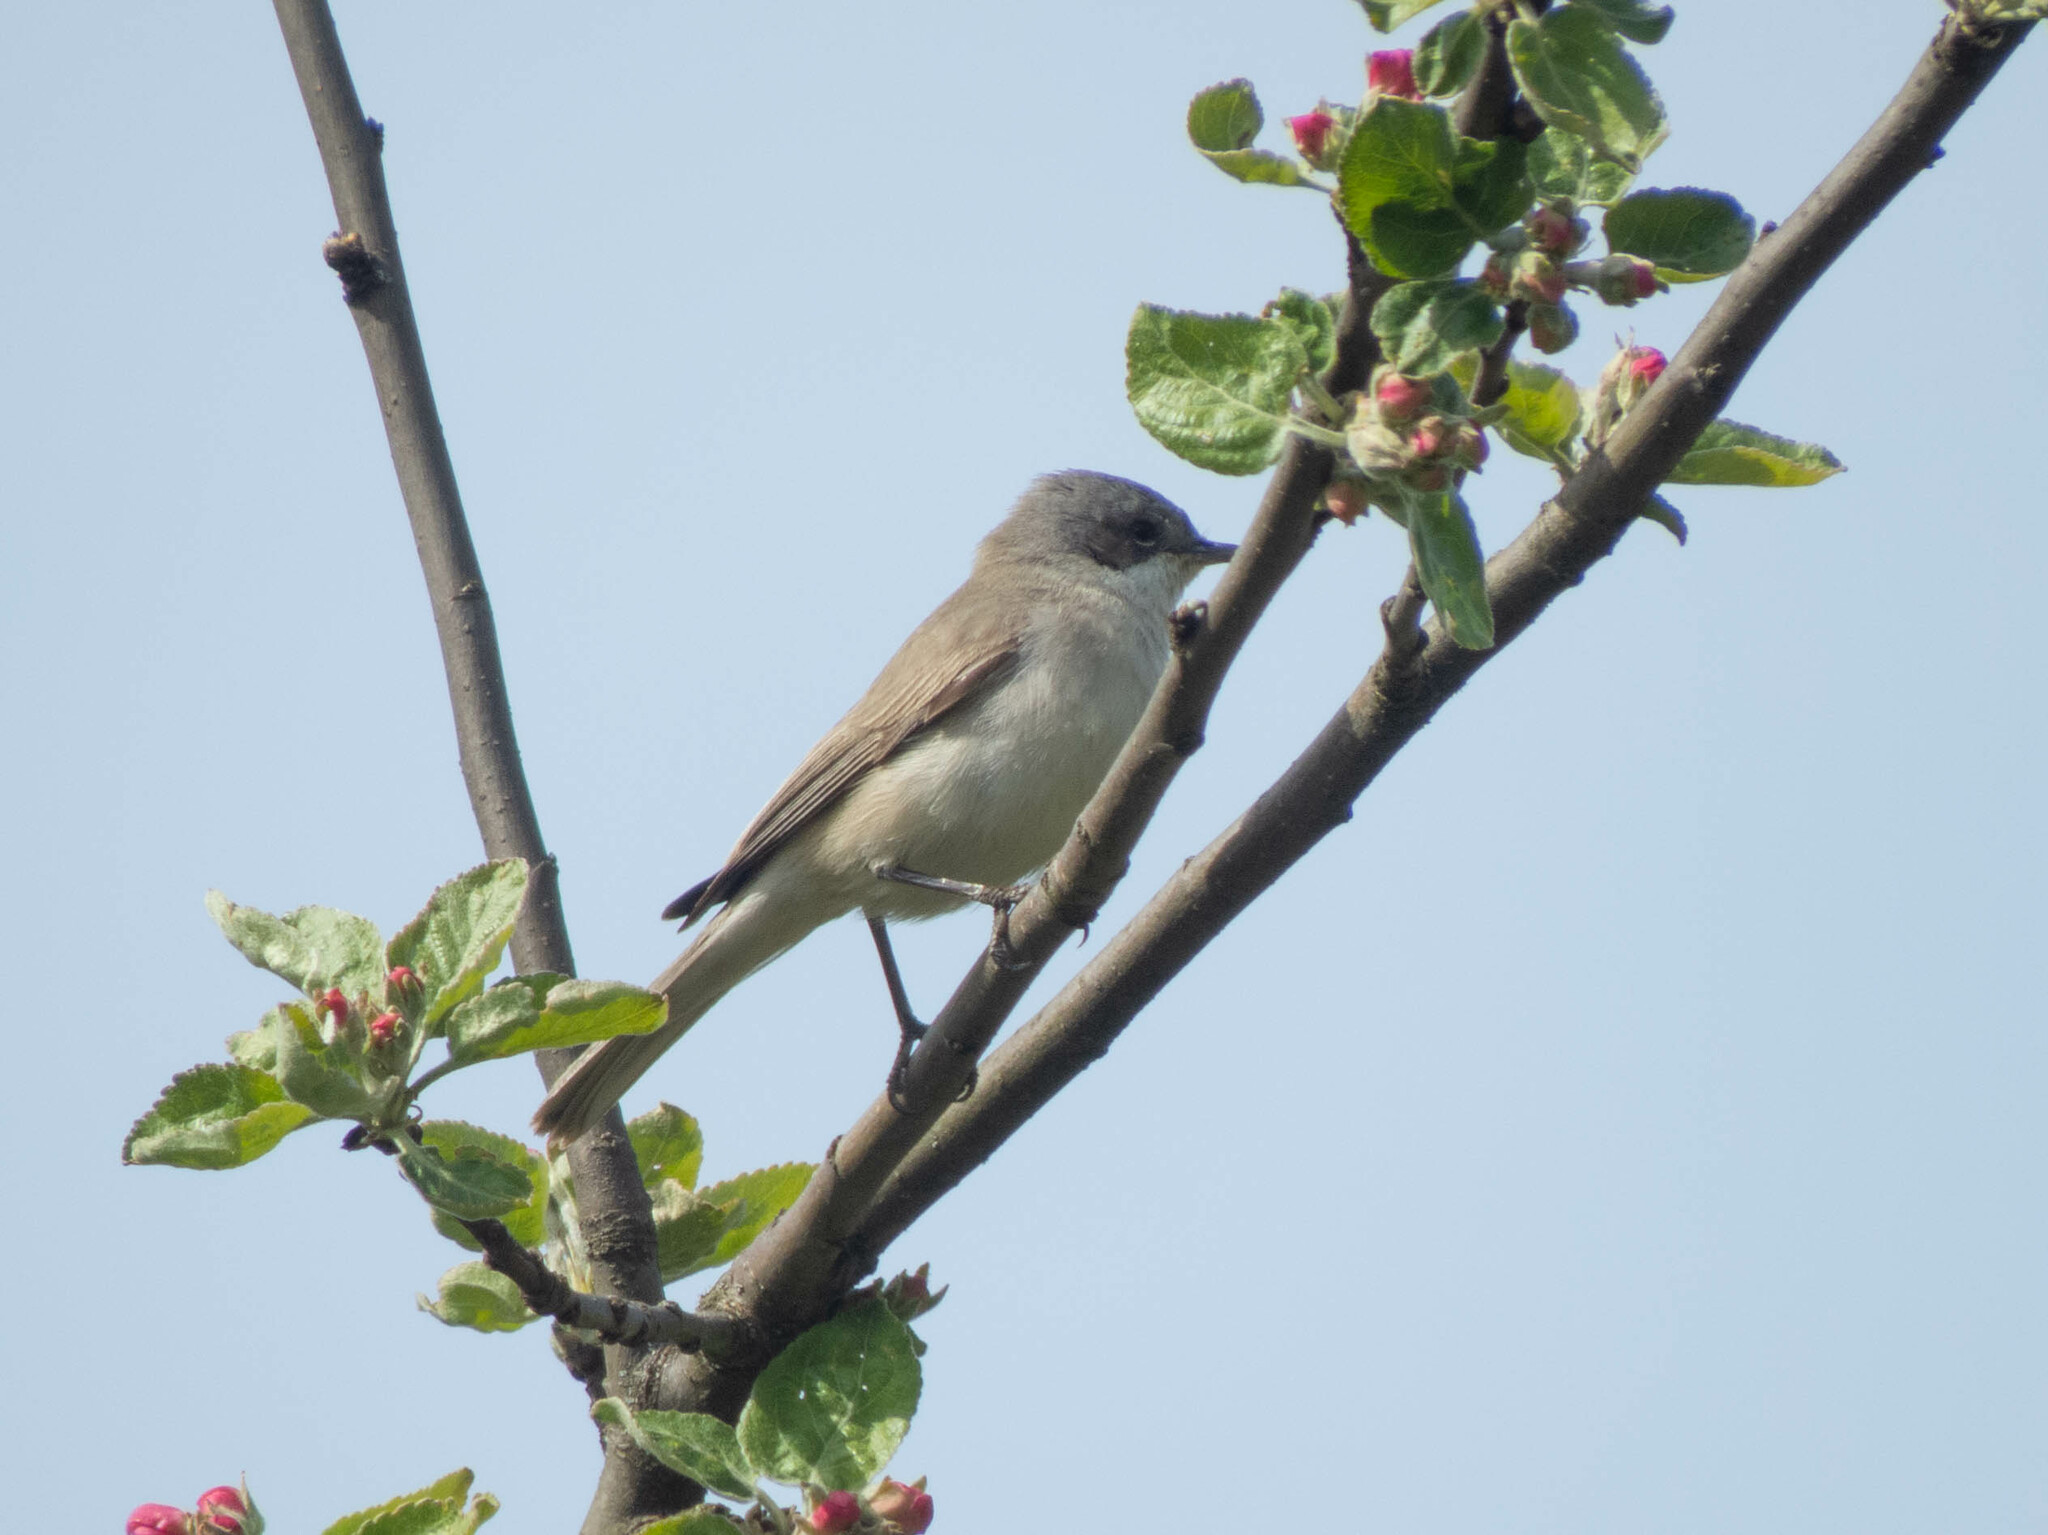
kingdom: Animalia
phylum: Chordata
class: Aves
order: Passeriformes
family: Sylviidae
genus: Sylvia
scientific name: Sylvia curruca
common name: Lesser whitethroat
